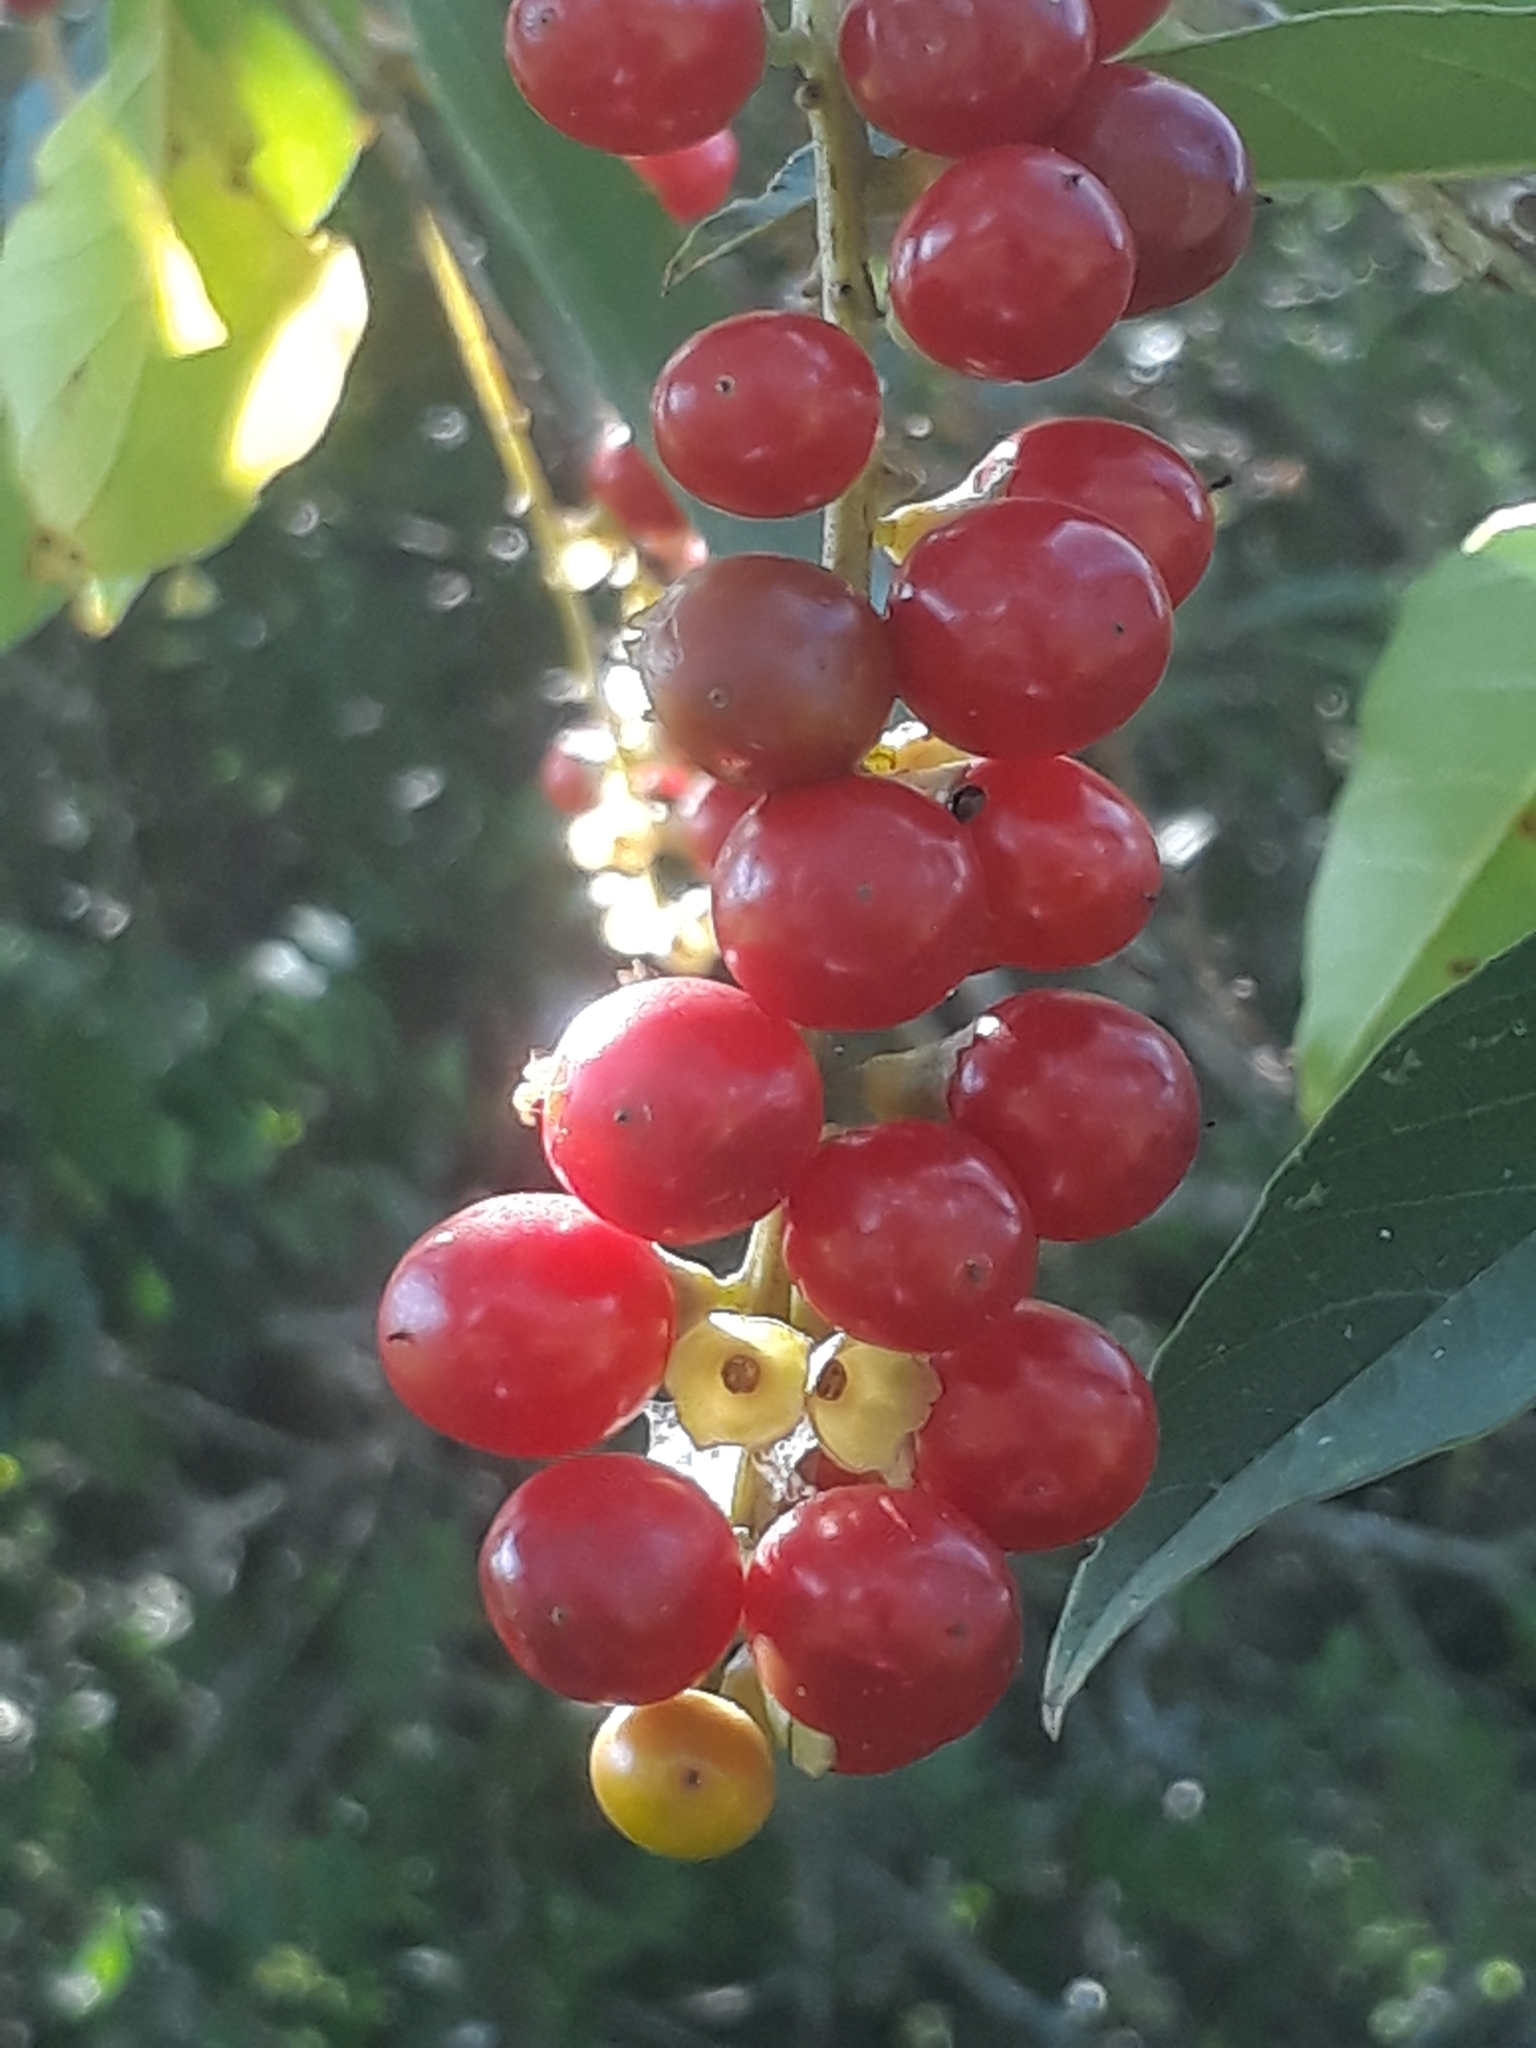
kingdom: Plantae
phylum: Tracheophyta
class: Magnoliopsida
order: Lamiales
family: Verbenaceae
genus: Citharexylum
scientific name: Citharexylum montevidense
